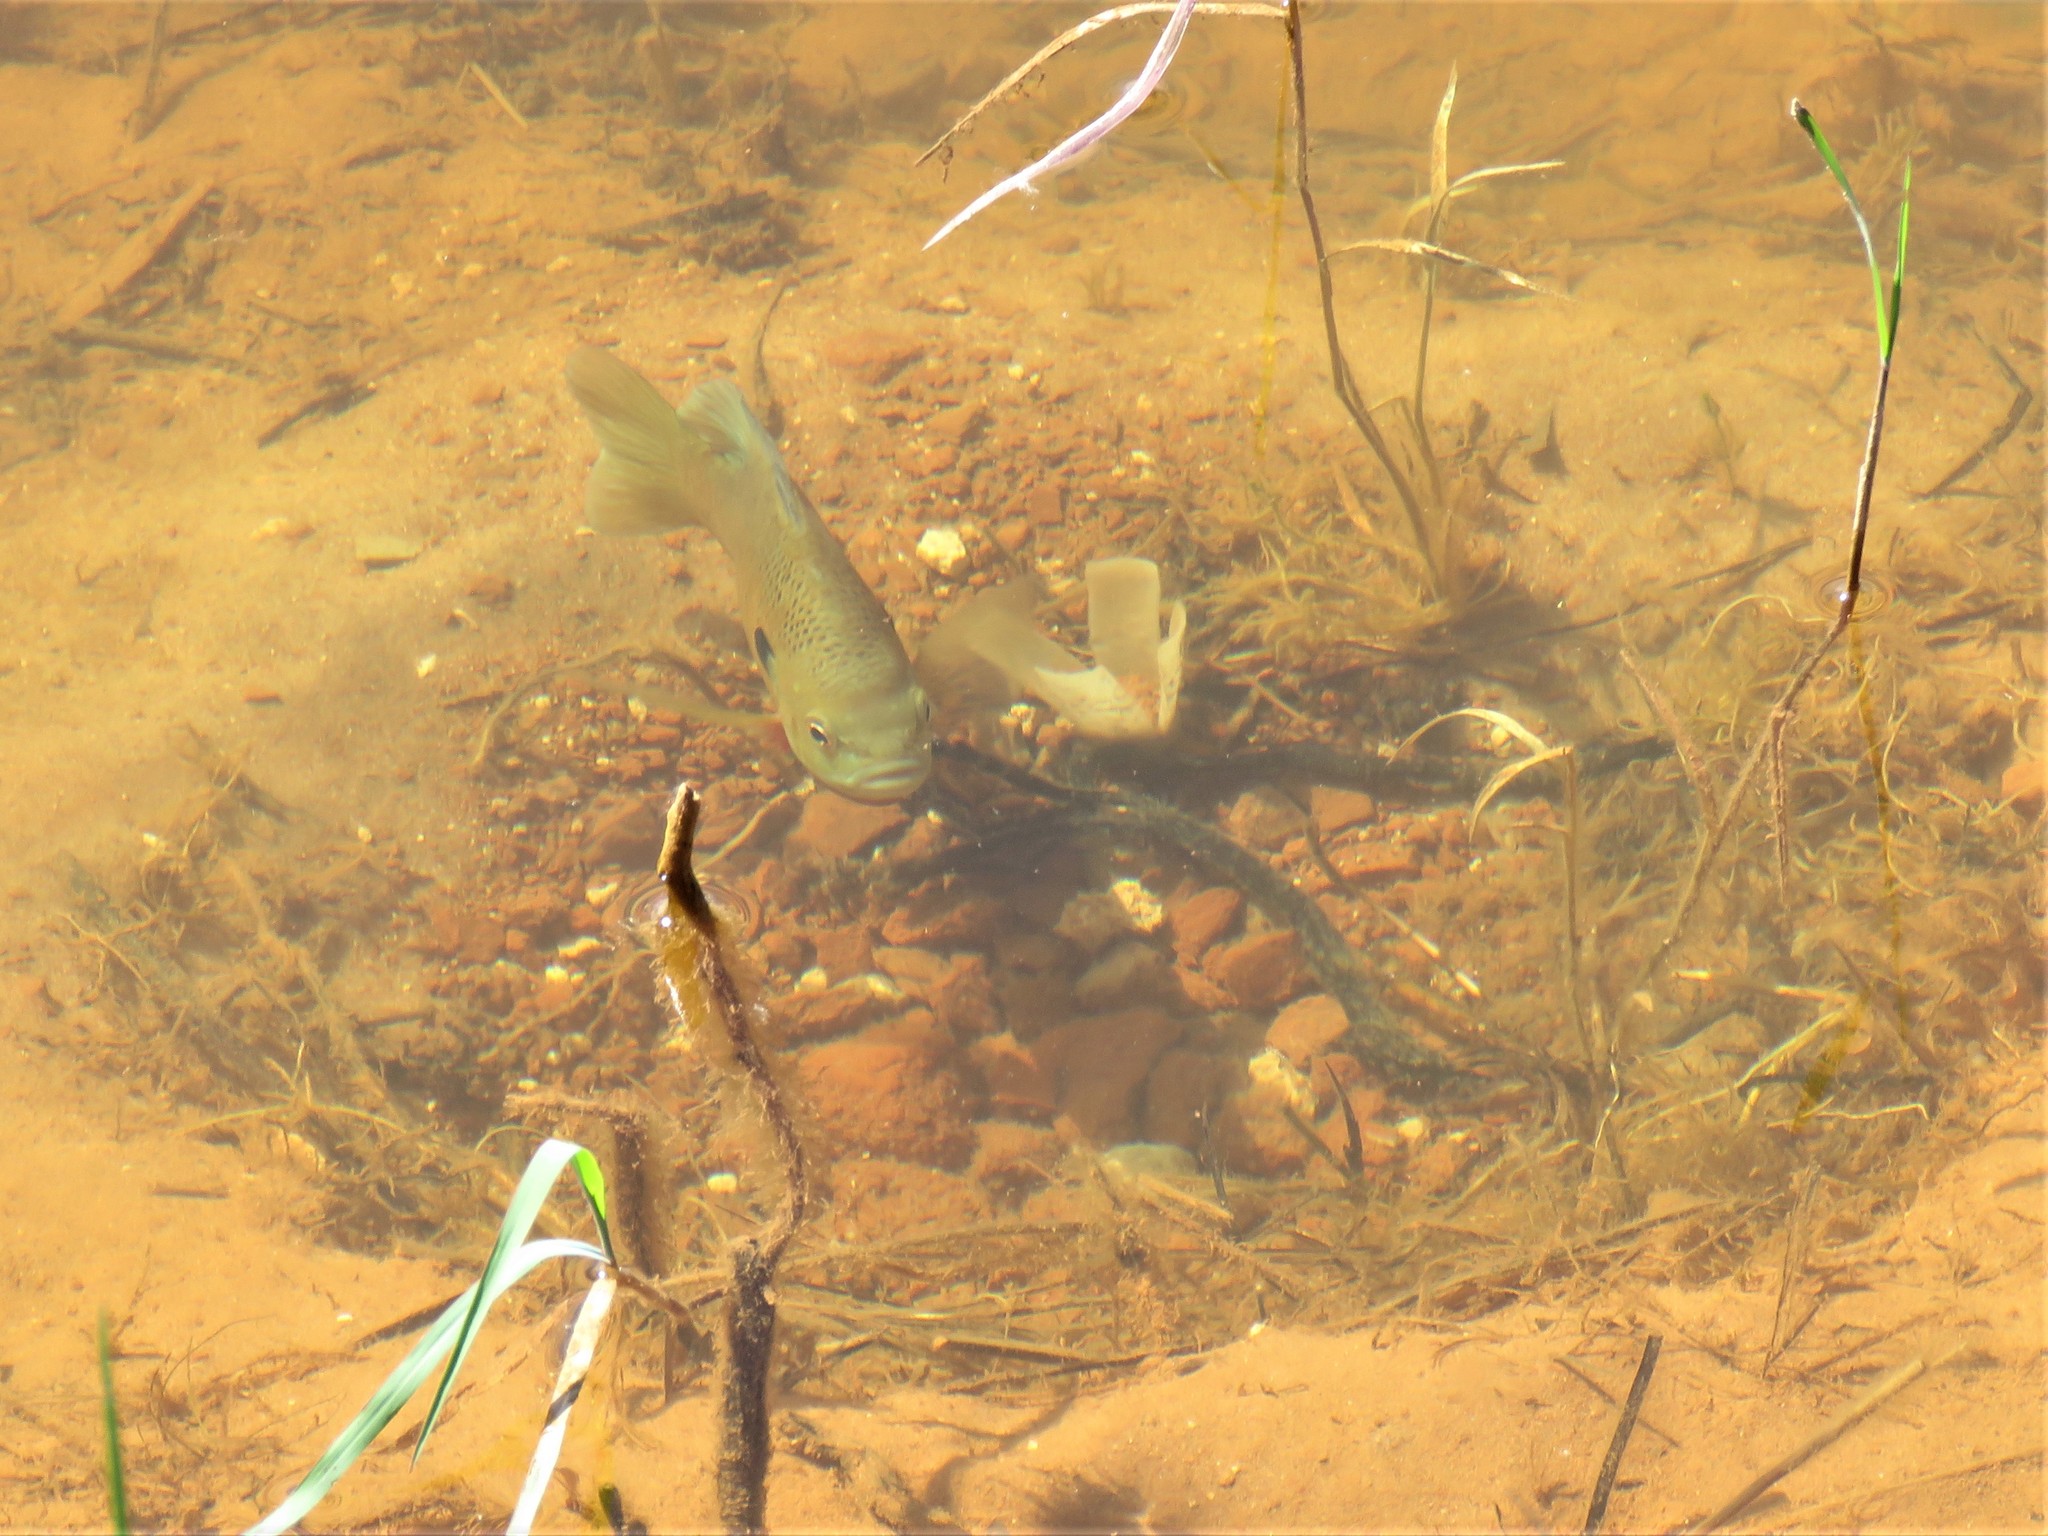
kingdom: Animalia
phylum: Chordata
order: Perciformes
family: Centrarchidae
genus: Lepomis
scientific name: Lepomis macrochirus
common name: Bluegill
